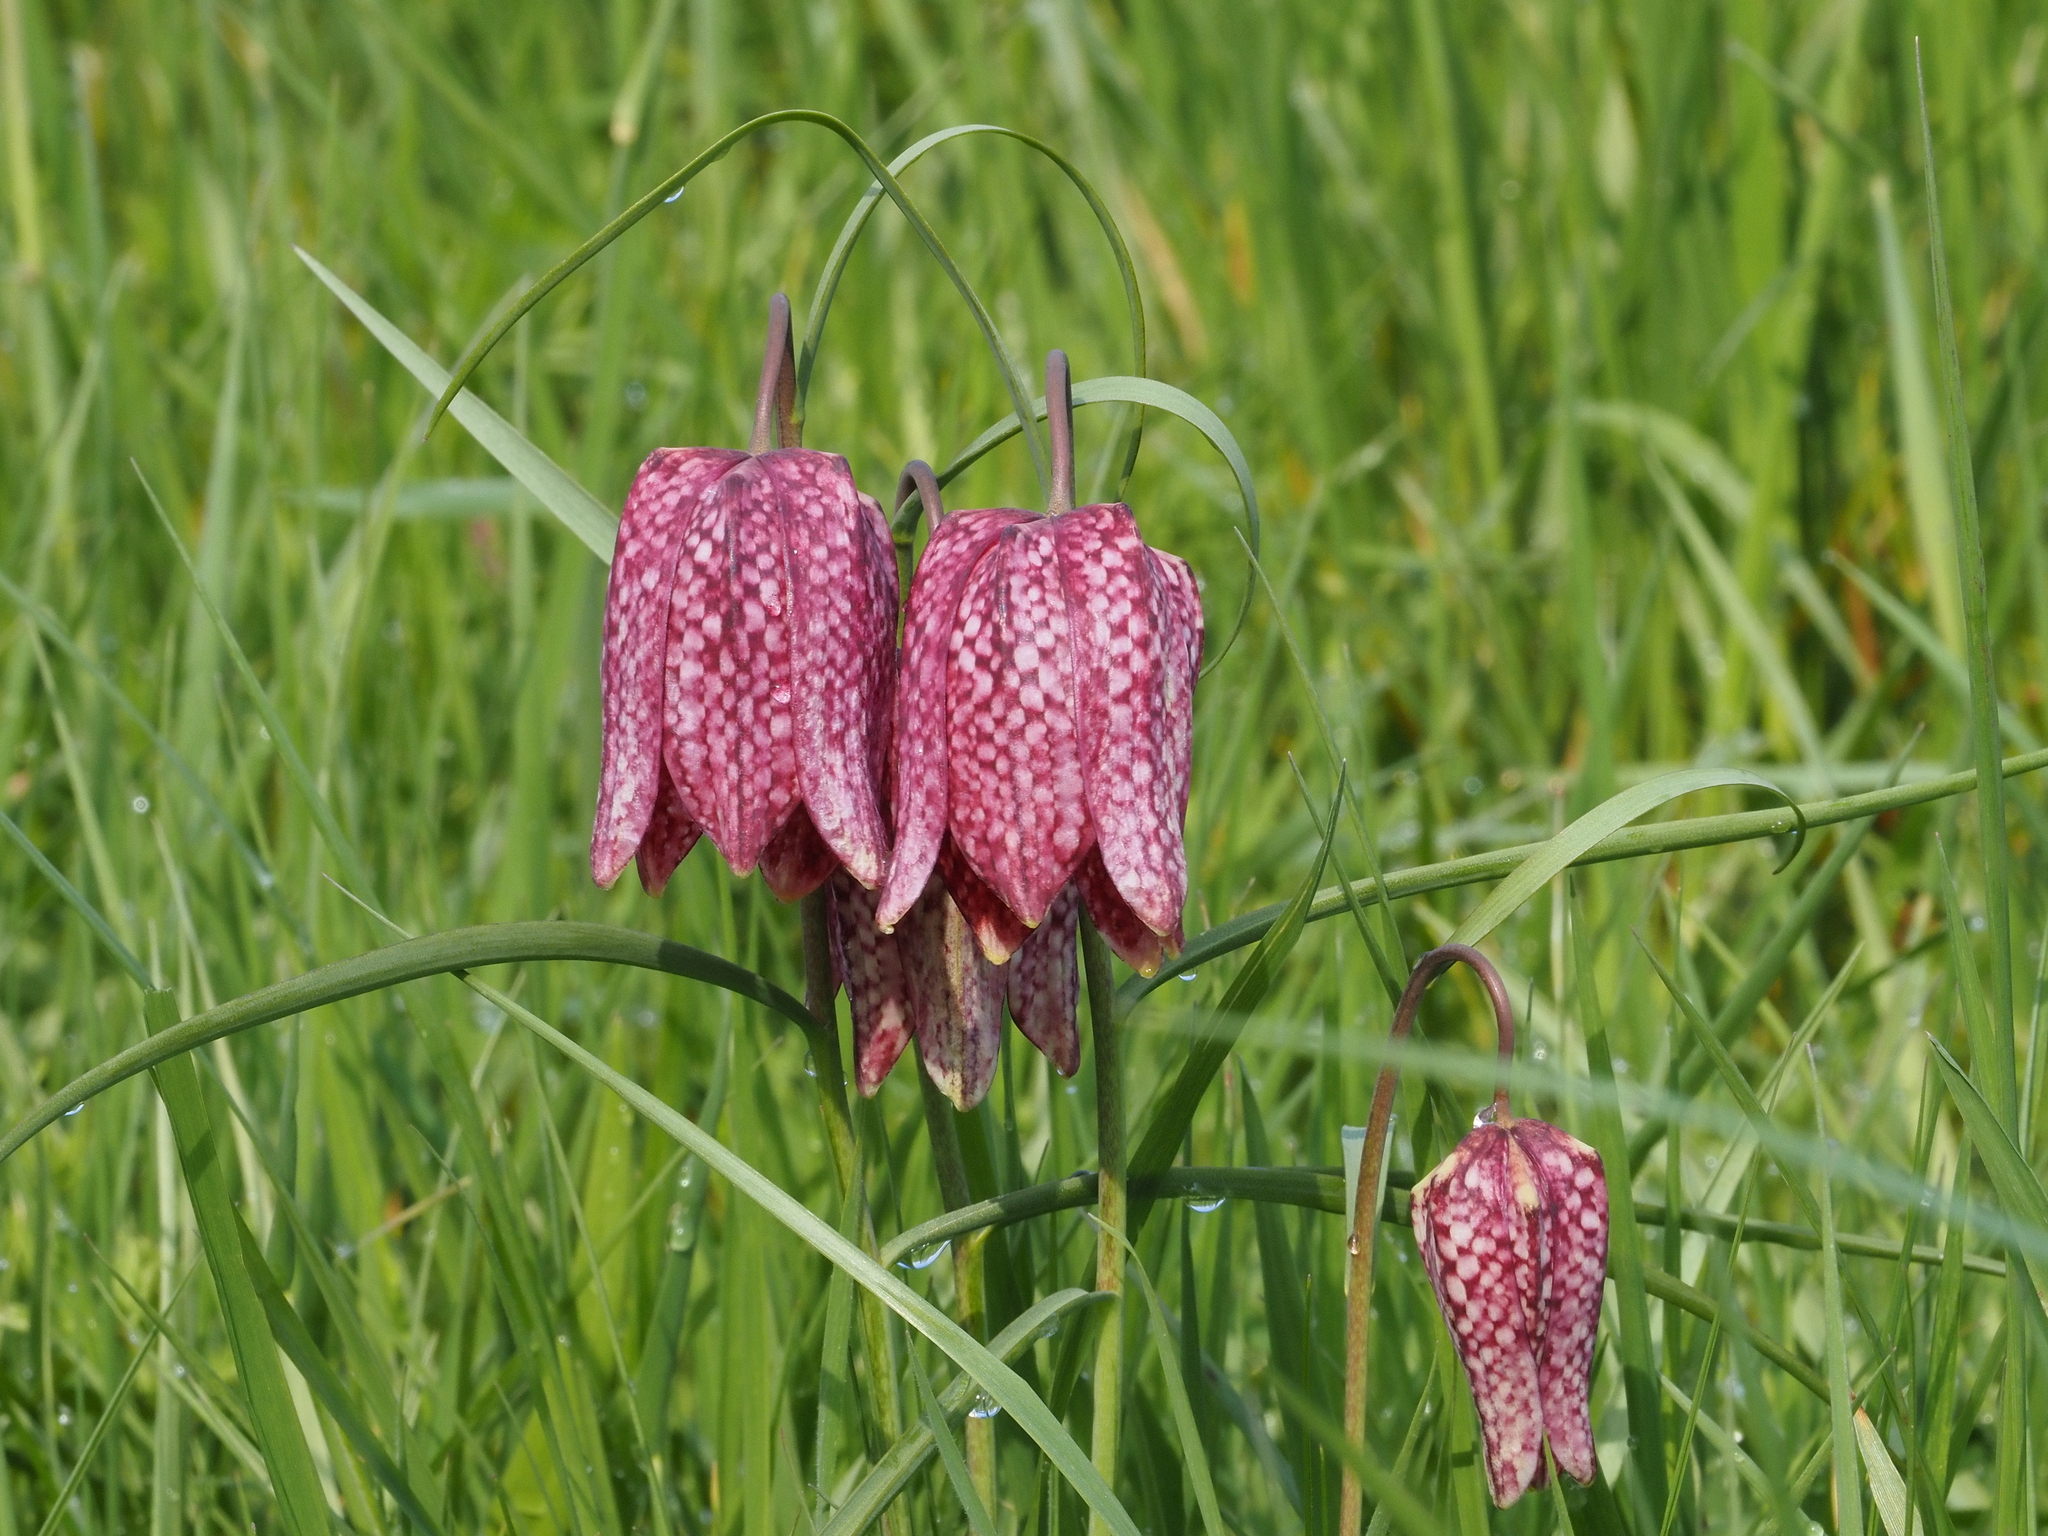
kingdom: Plantae
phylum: Tracheophyta
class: Liliopsida
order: Liliales
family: Liliaceae
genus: Fritillaria
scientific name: Fritillaria meleagris
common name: Fritillary
